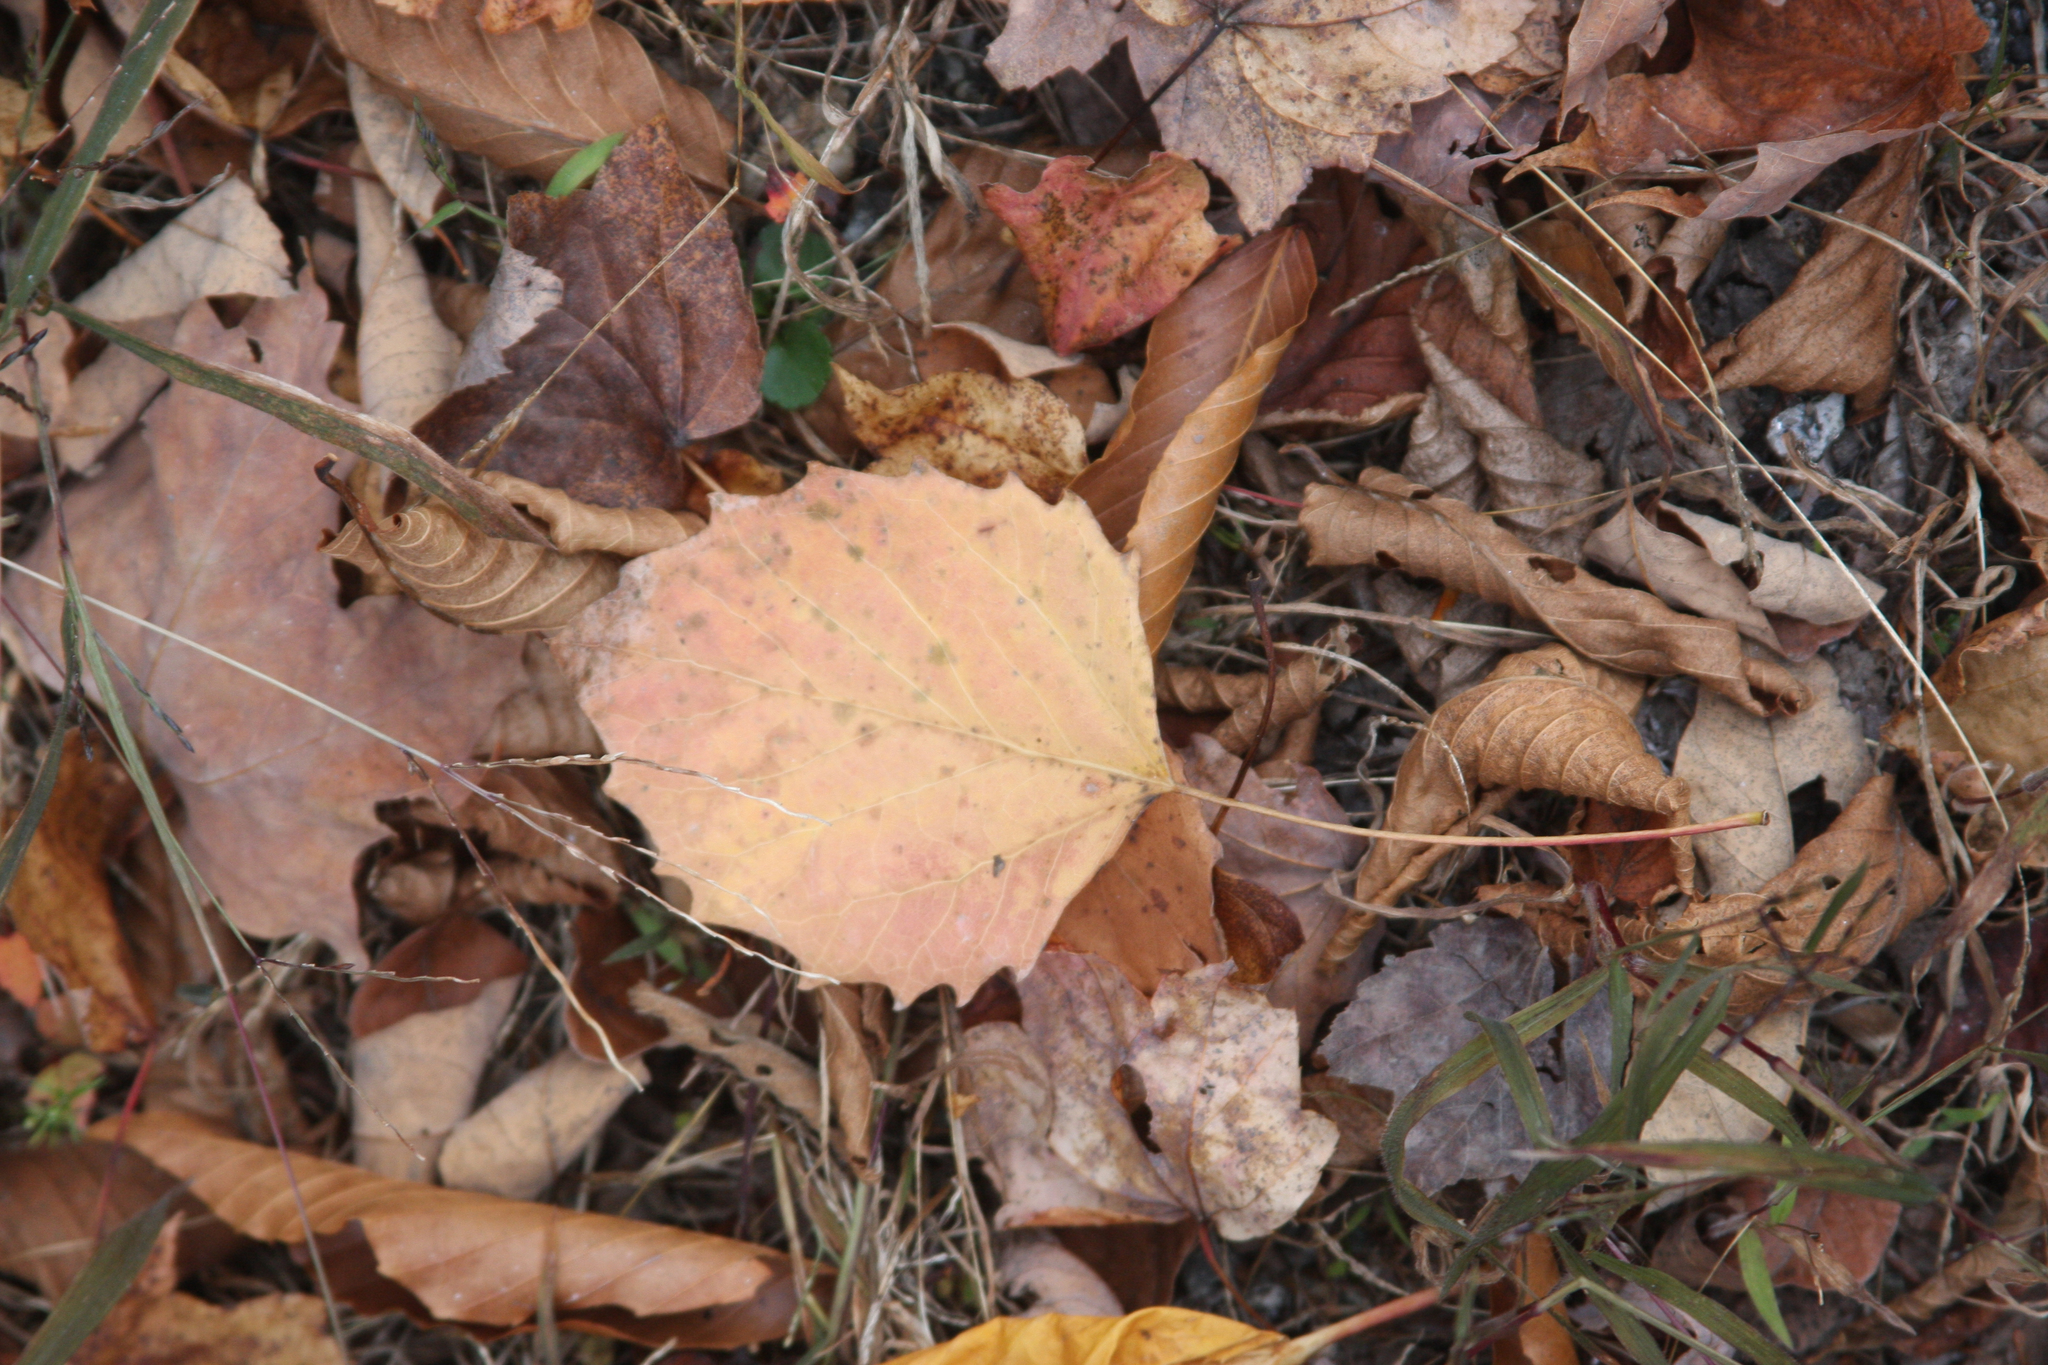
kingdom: Plantae
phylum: Tracheophyta
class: Magnoliopsida
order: Malpighiales
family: Salicaceae
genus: Populus
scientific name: Populus grandidentata
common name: Bigtooth aspen
